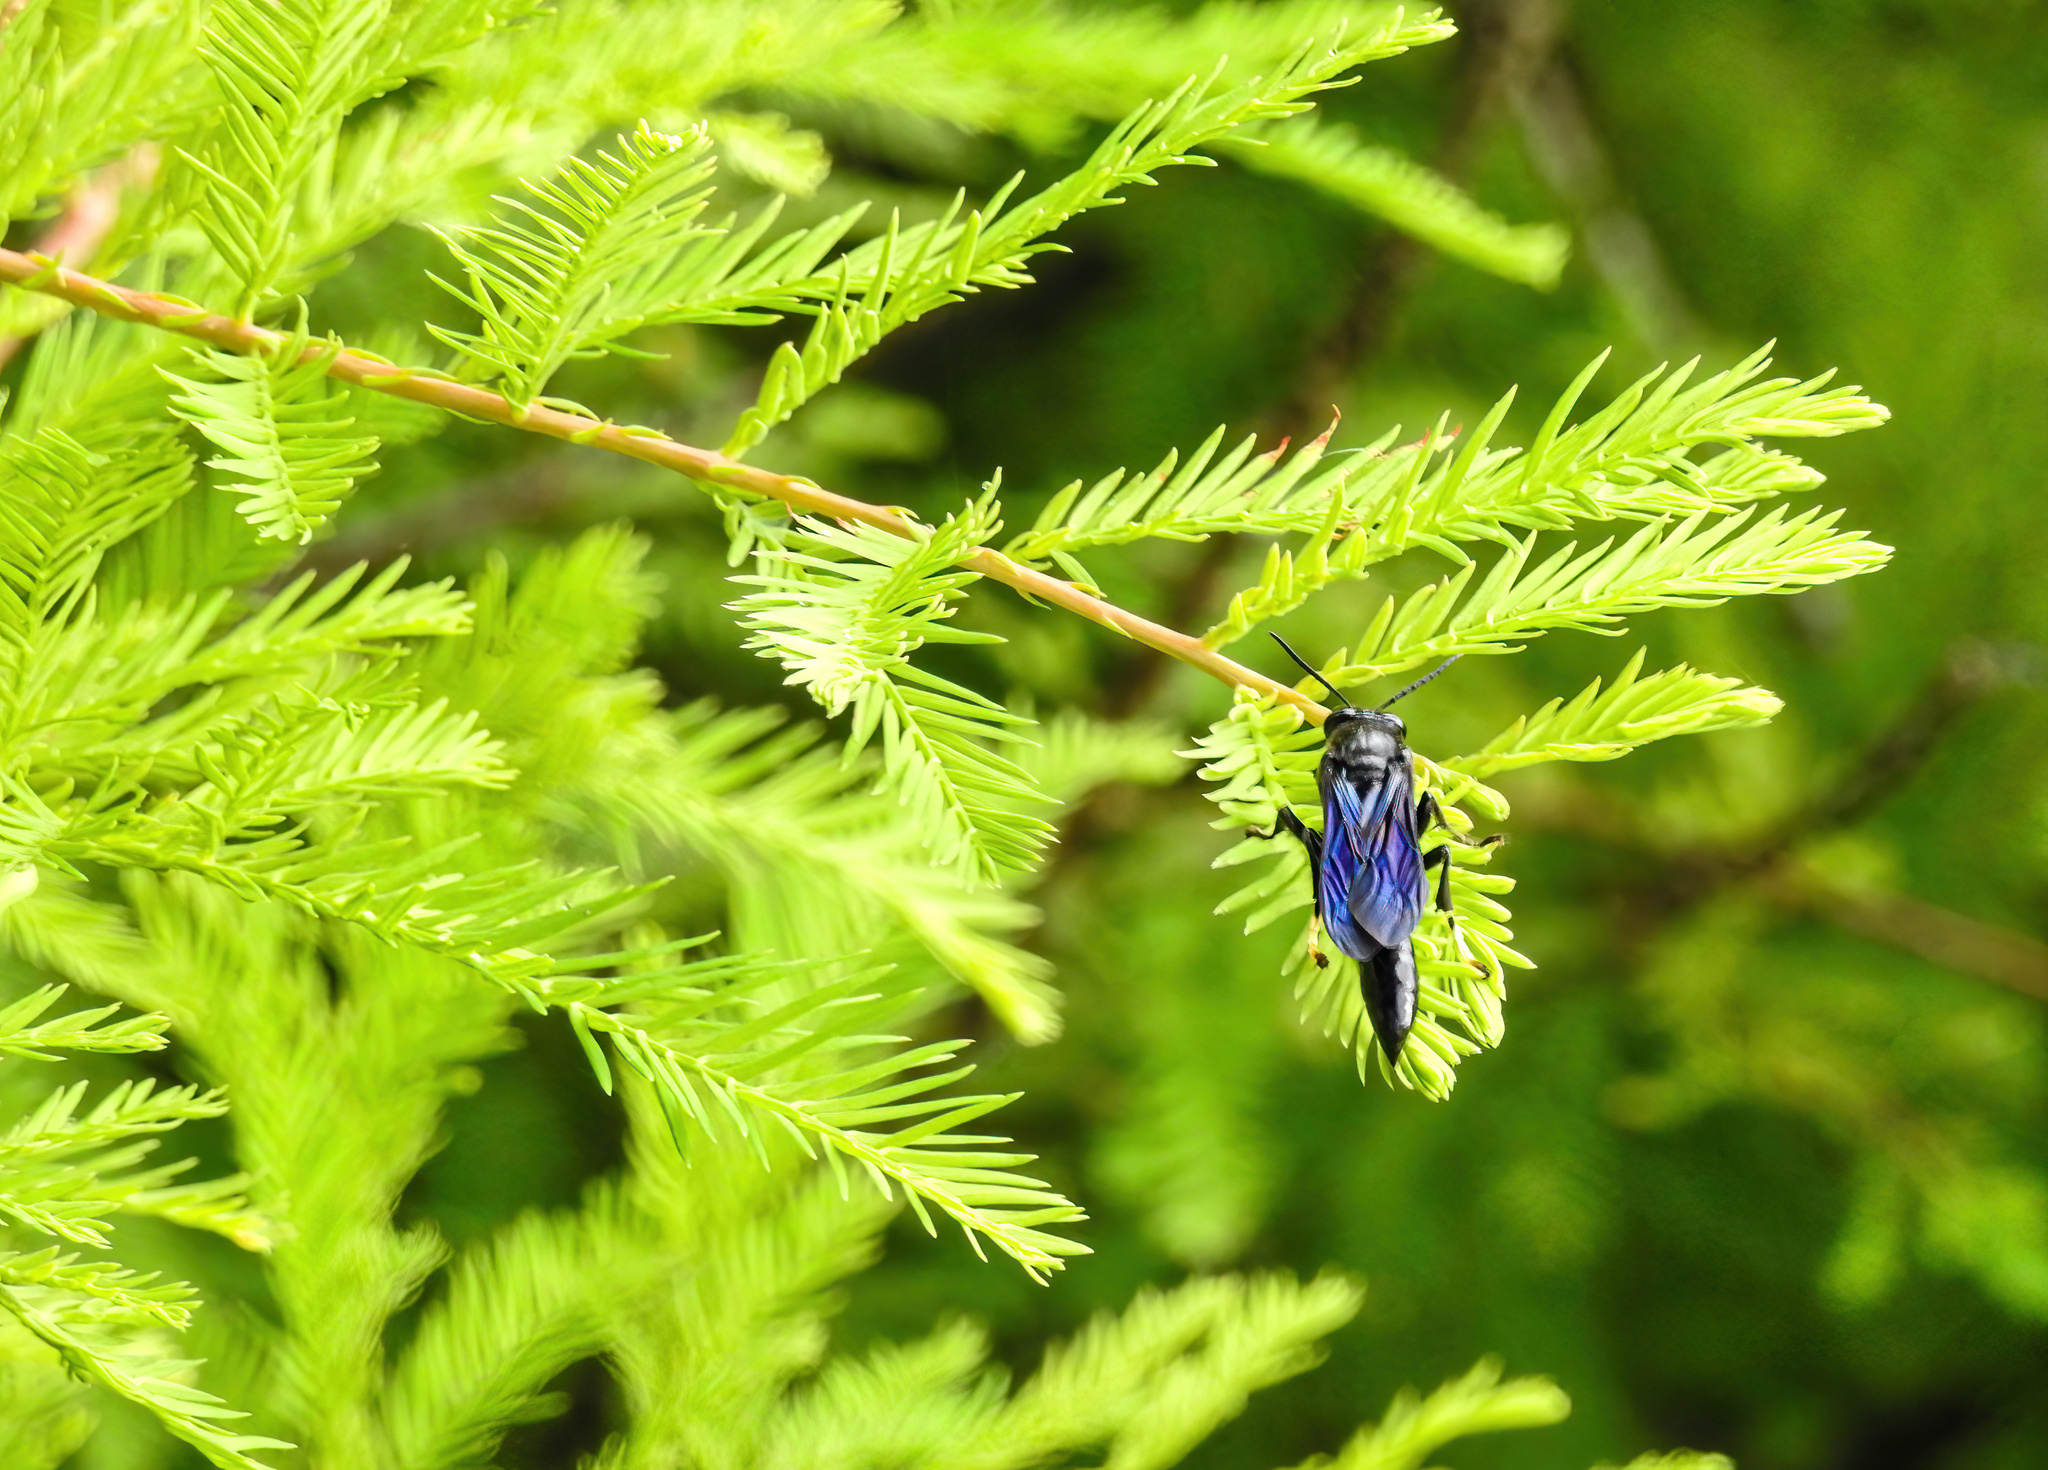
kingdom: Animalia
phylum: Arthropoda
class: Insecta
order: Hymenoptera
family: Crabronidae
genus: Trypoxylon
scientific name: Trypoxylon politum
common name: Organ-pipe mud-dauber wasp
